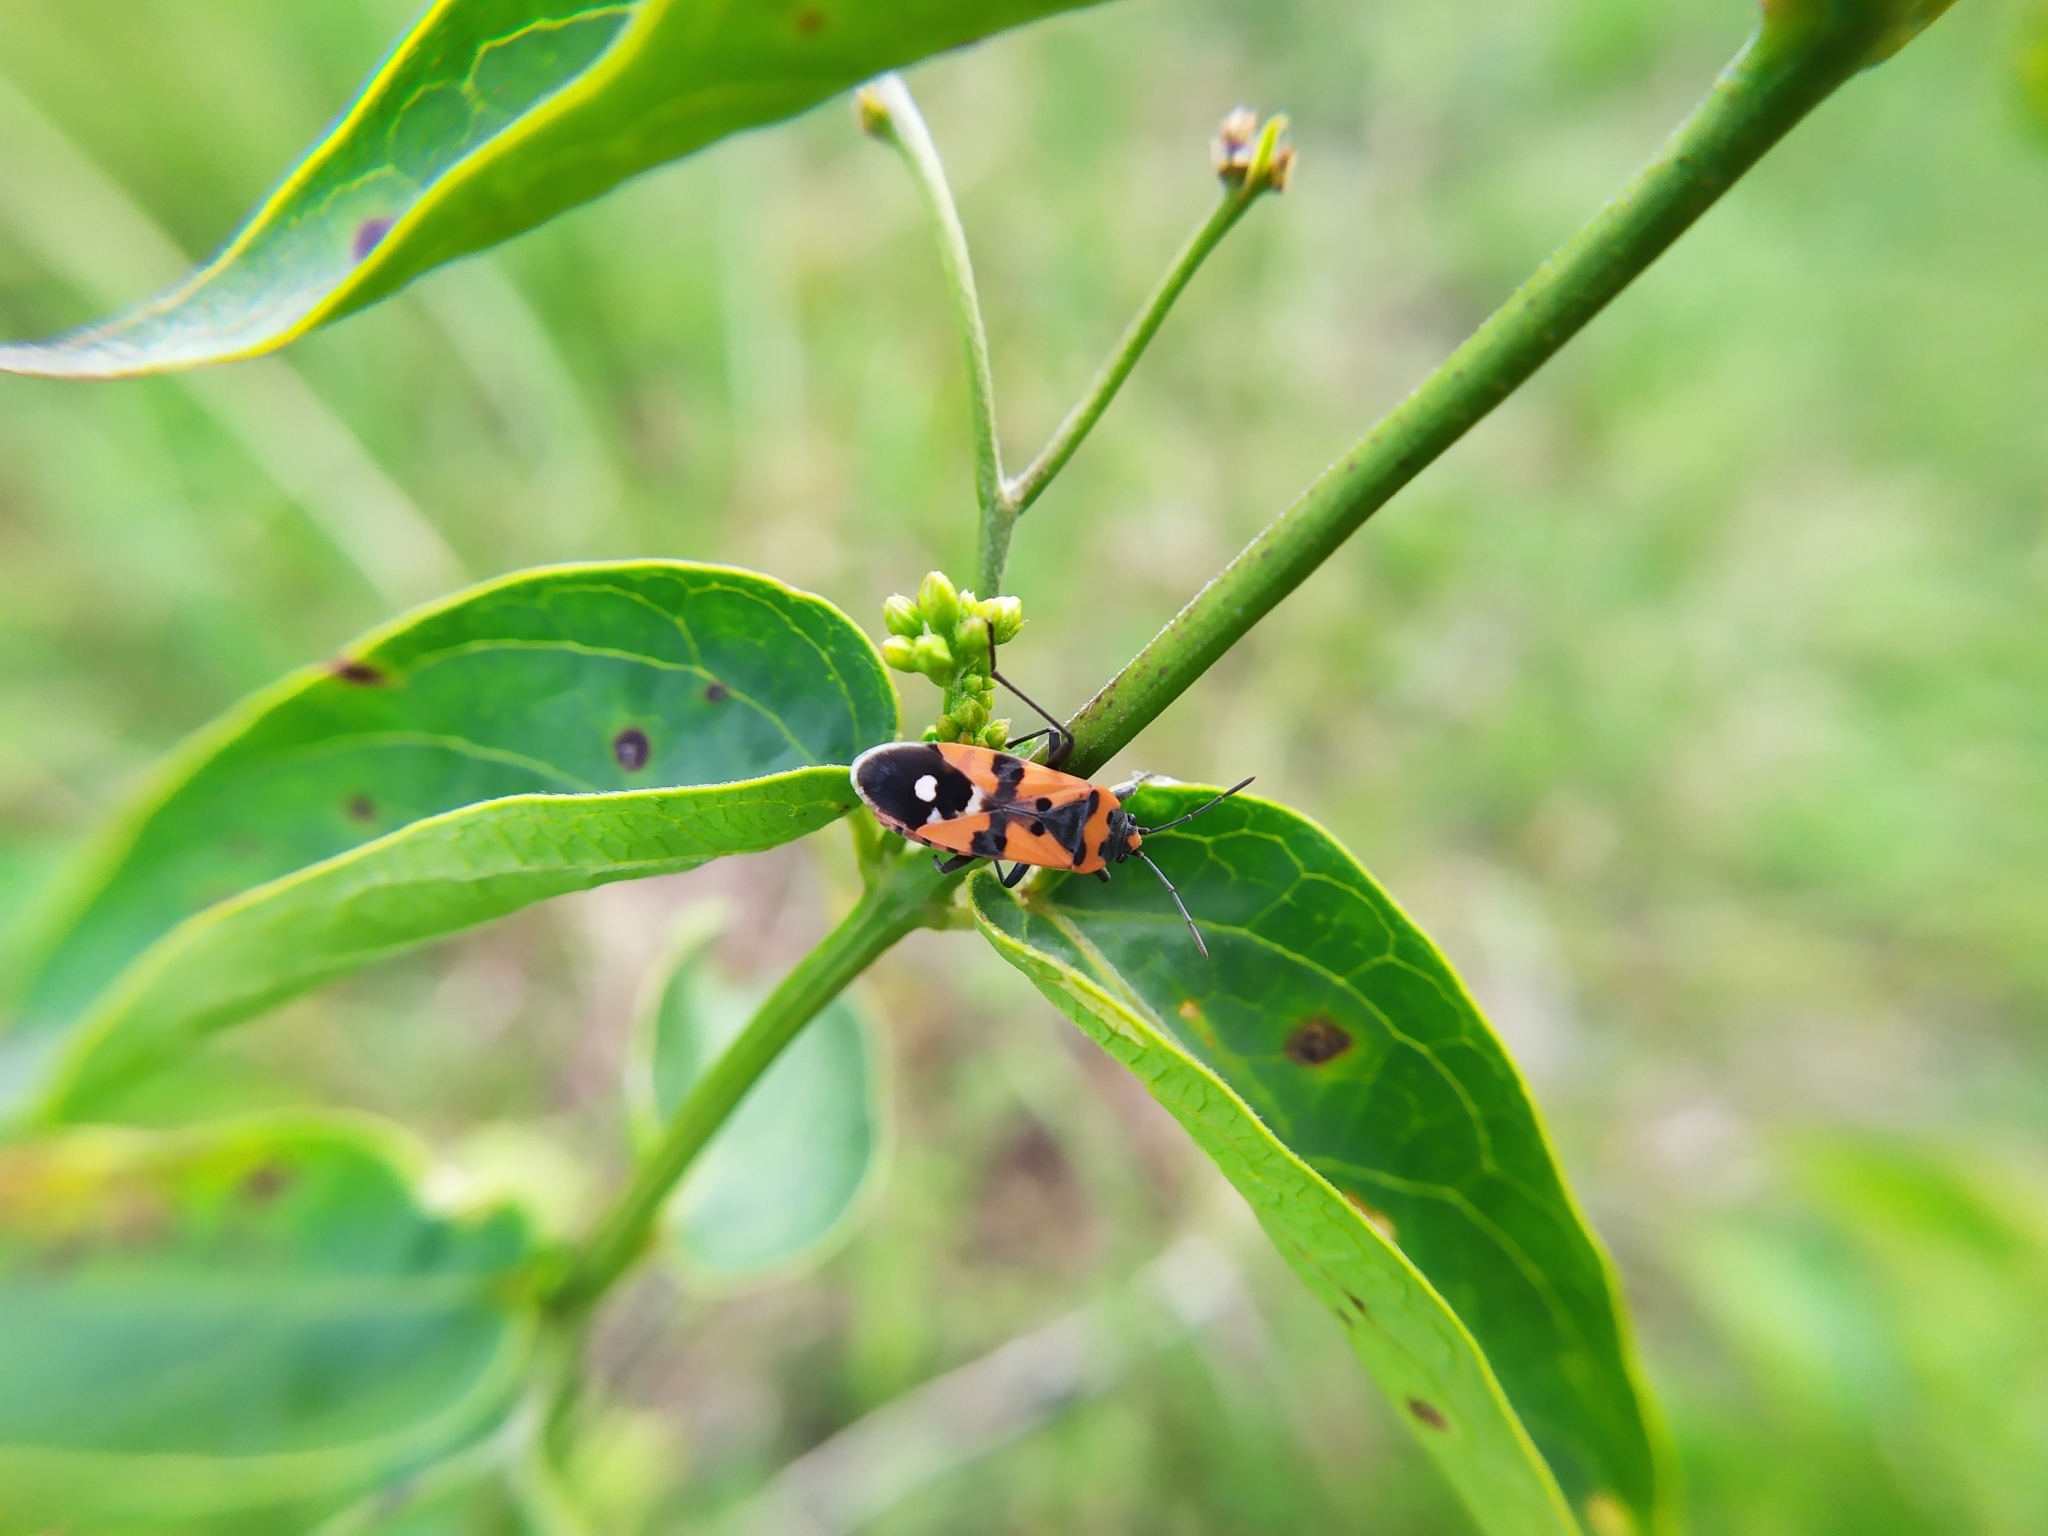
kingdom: Animalia
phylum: Arthropoda
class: Insecta
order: Hemiptera
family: Lygaeidae
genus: Lygaeus
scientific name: Lygaeus equestris
